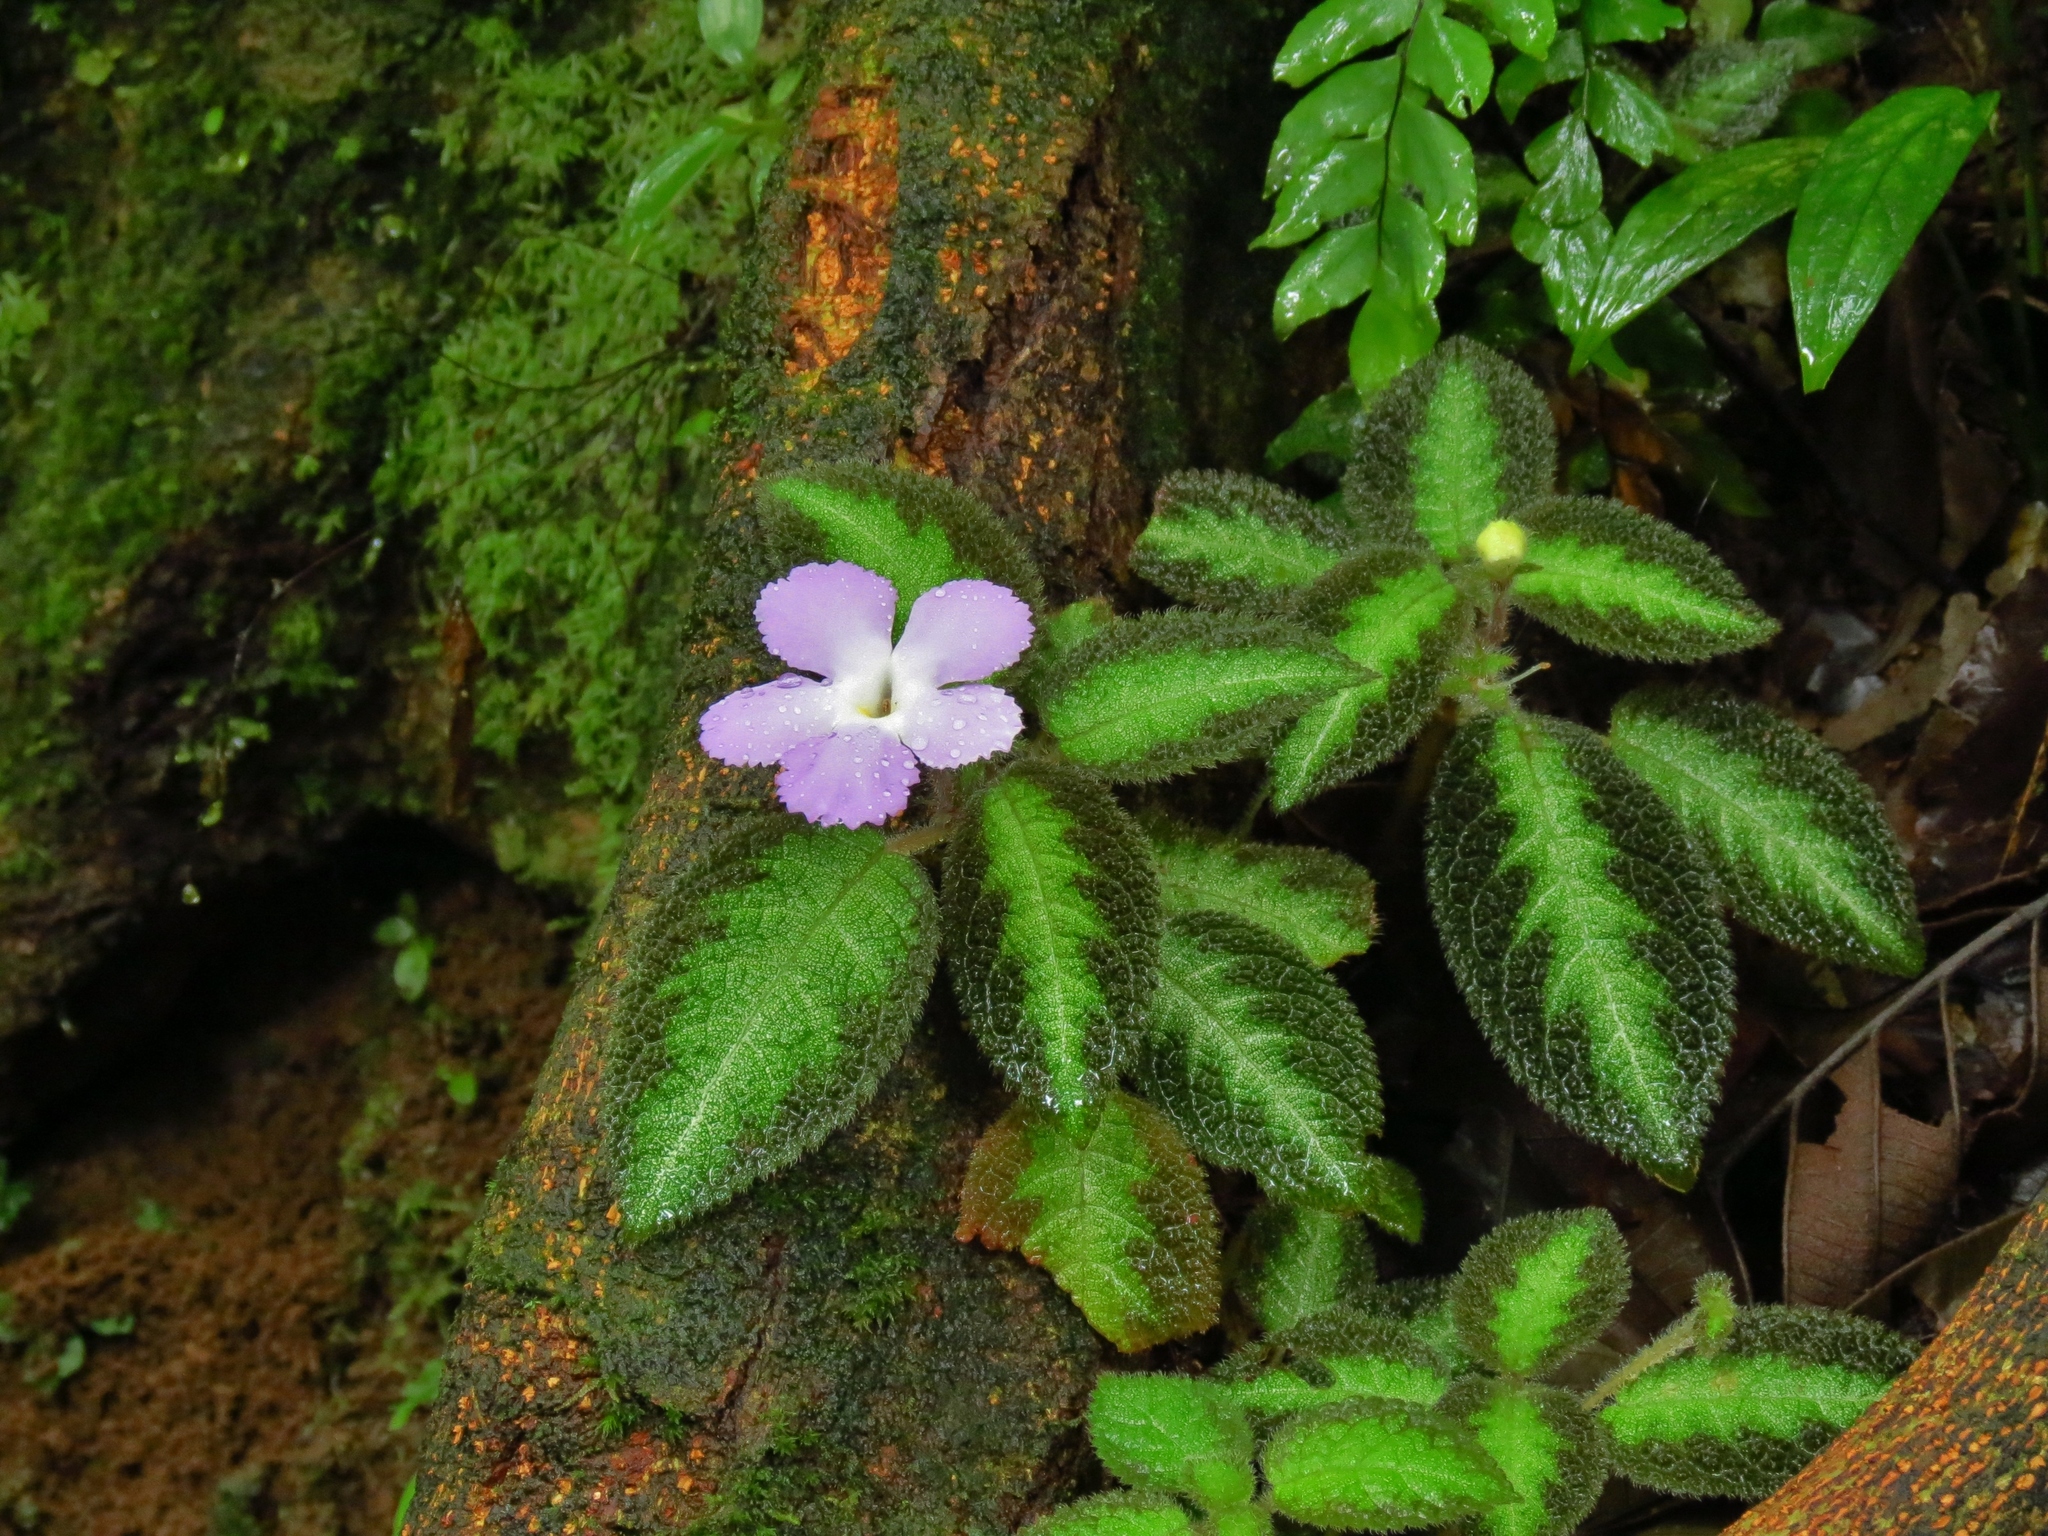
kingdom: Plantae
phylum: Tracheophyta
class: Magnoliopsida
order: Lamiales
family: Gesneriaceae
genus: Episcia
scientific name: Episcia lilacina
